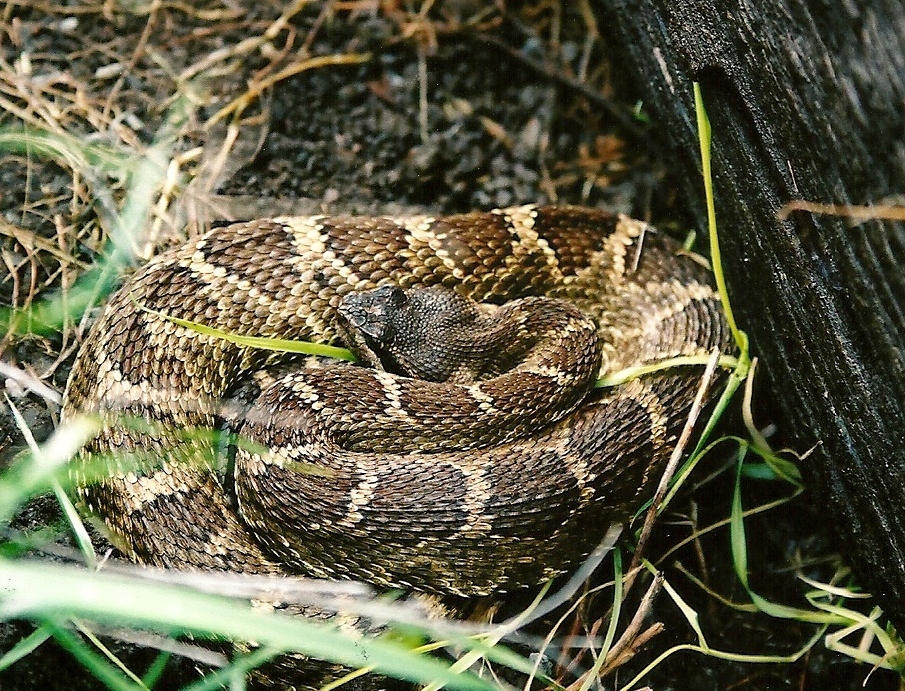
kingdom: Animalia
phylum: Chordata
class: Squamata
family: Viperidae
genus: Crotalus
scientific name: Crotalus oreganus
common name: Abyssus
